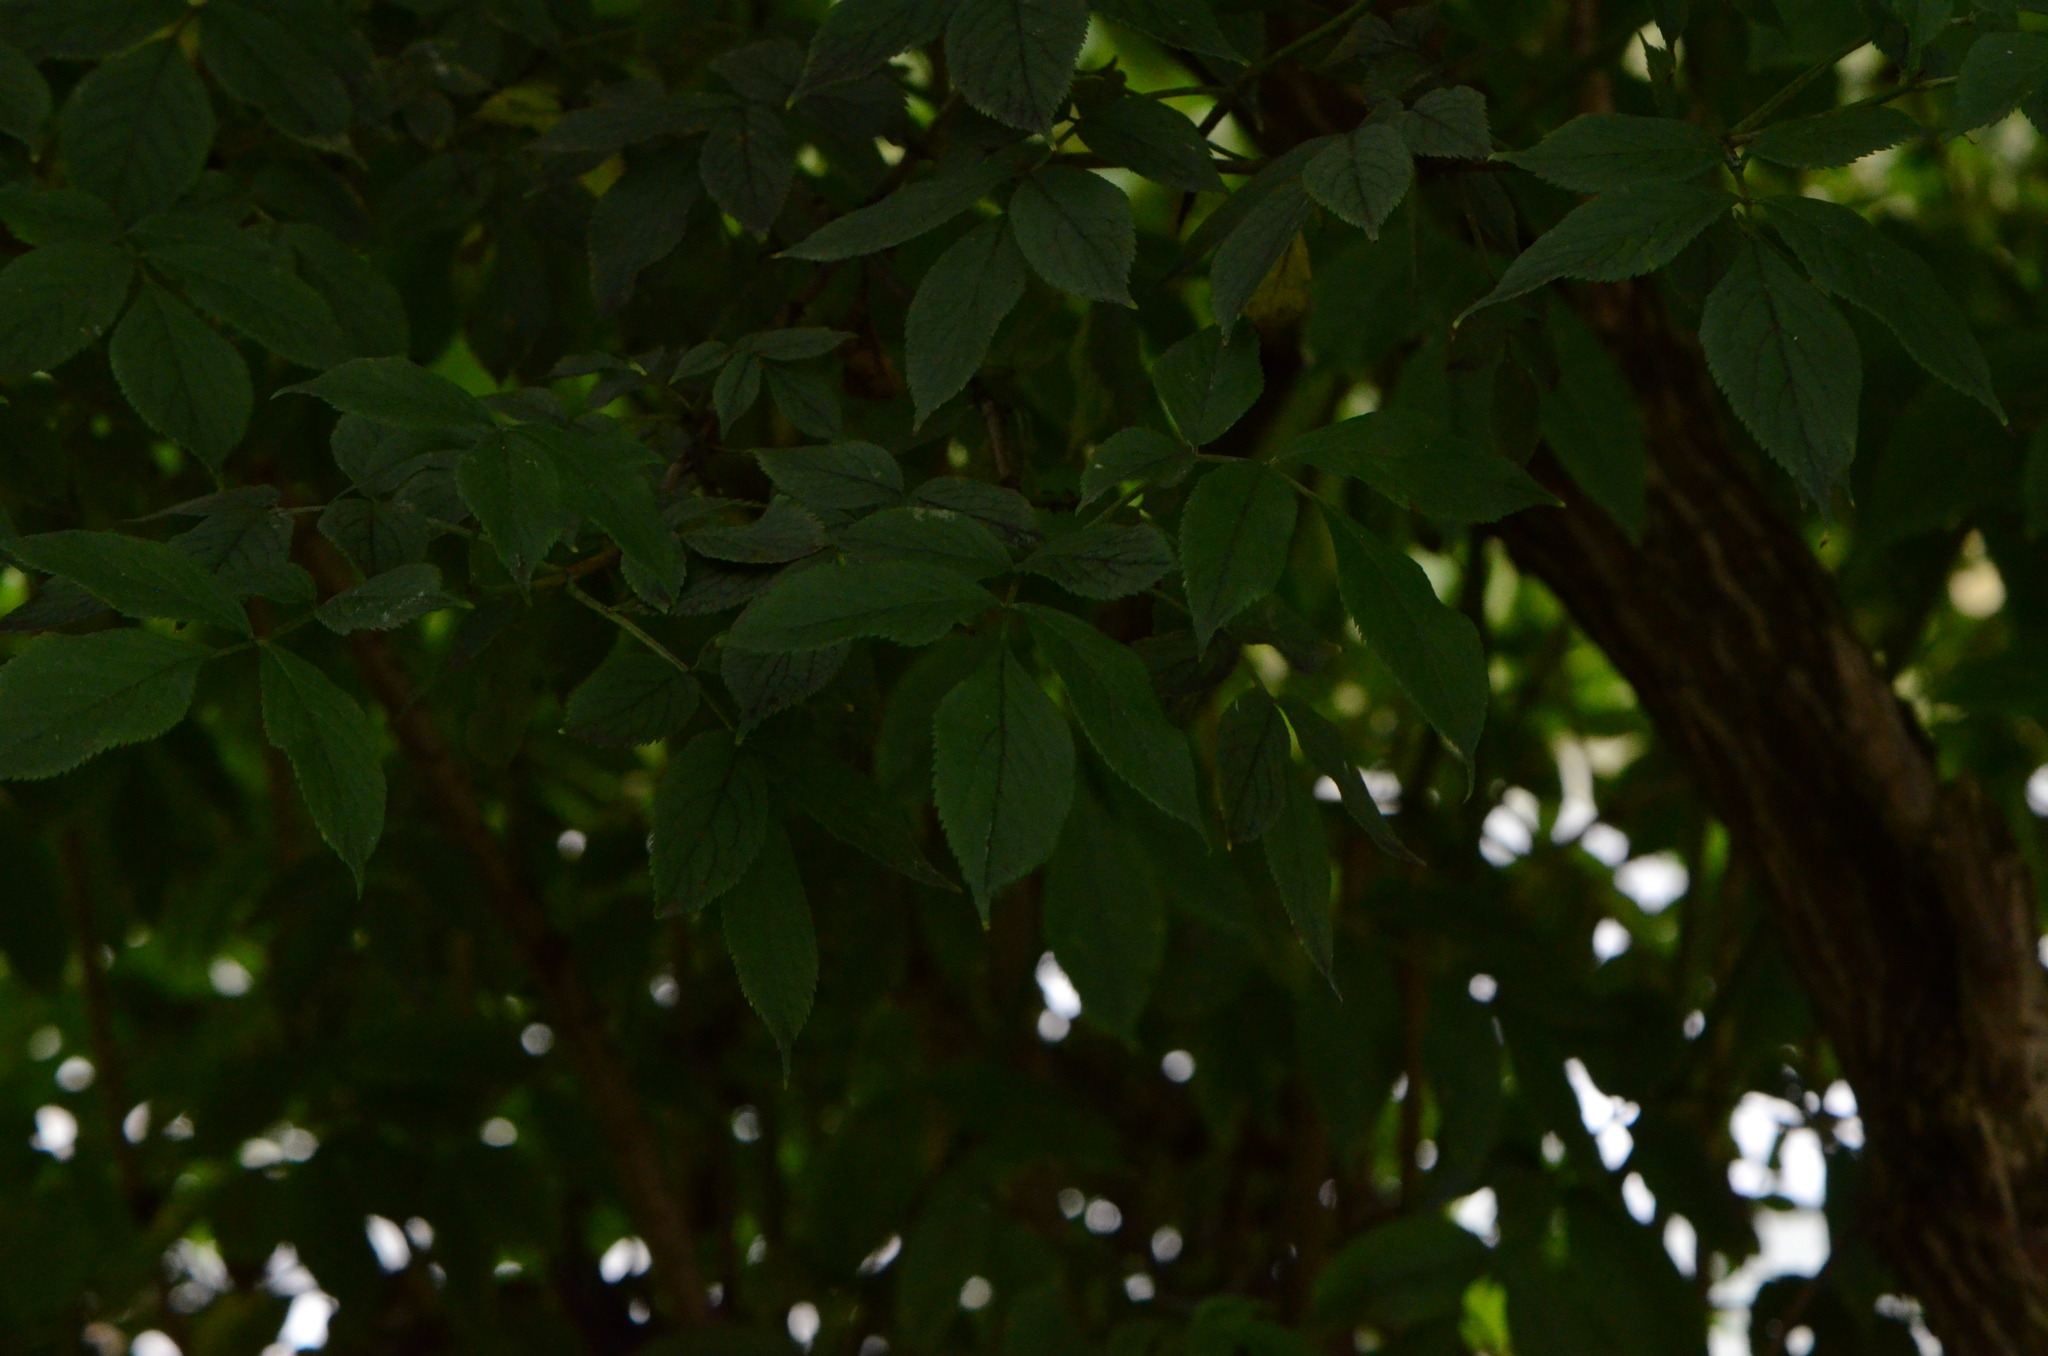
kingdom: Plantae
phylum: Tracheophyta
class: Magnoliopsida
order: Dipsacales
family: Viburnaceae
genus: Sambucus
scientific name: Sambucus nigra
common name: Elder
